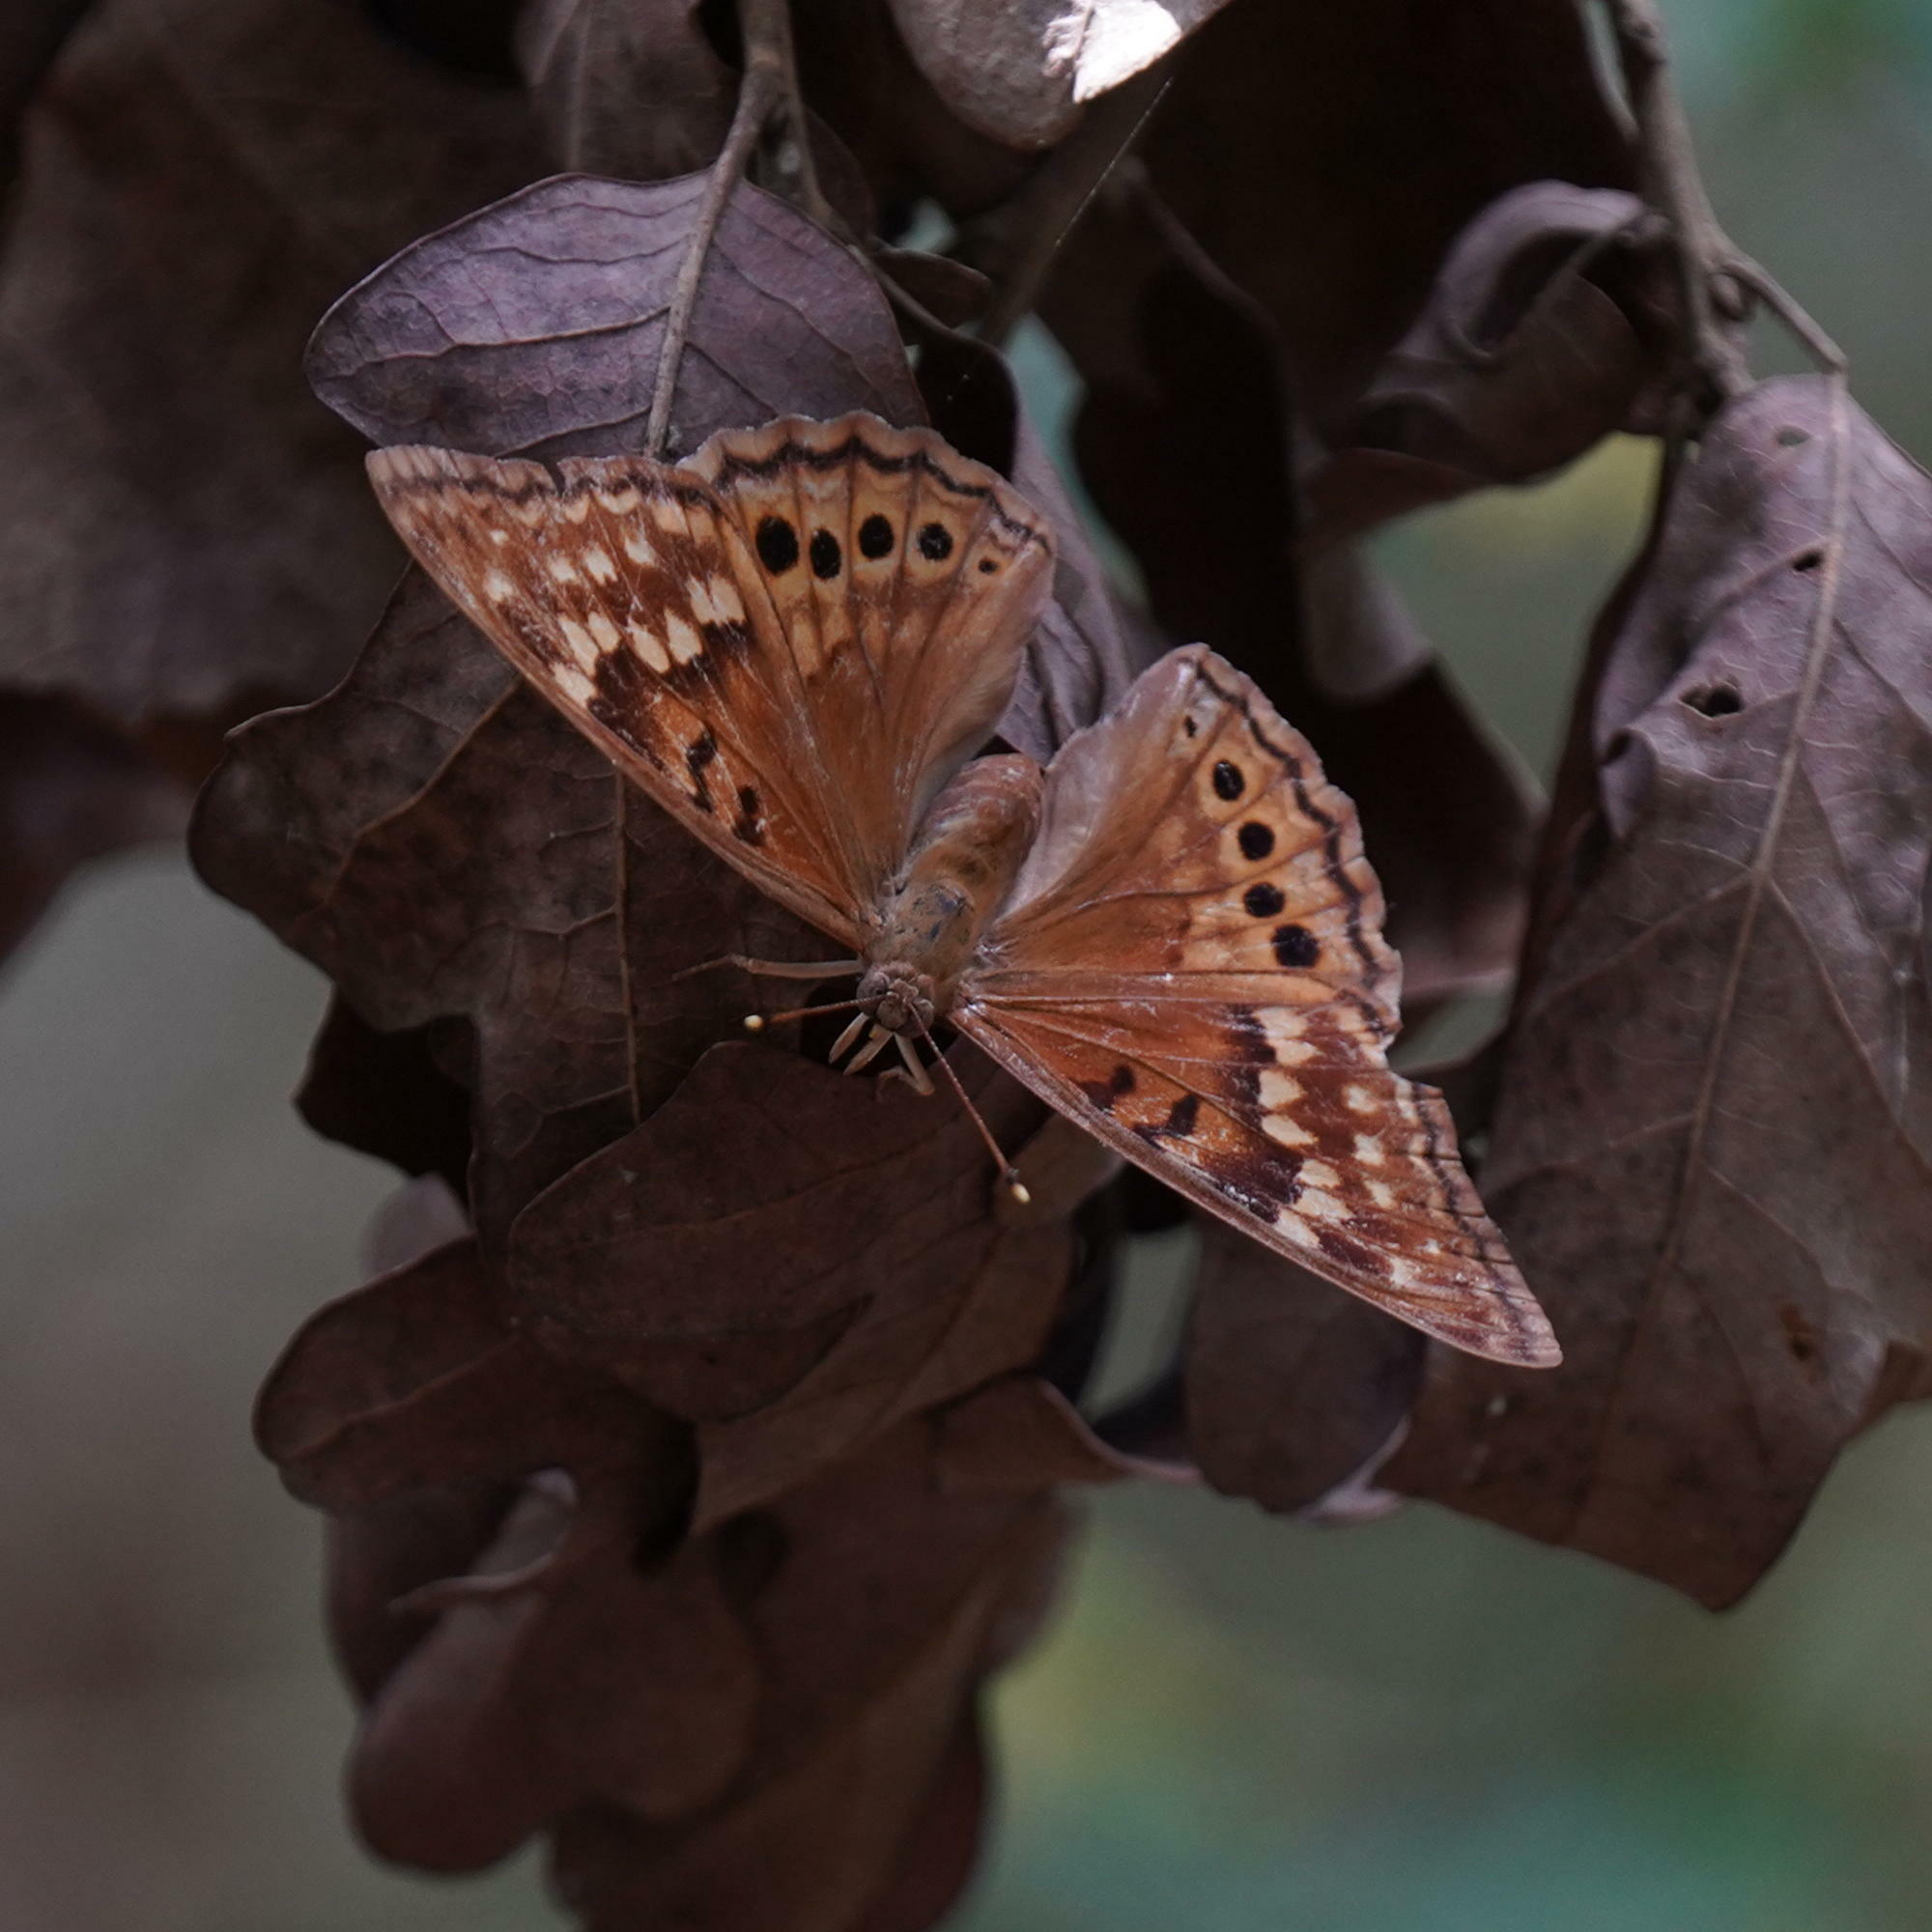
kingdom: Animalia
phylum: Arthropoda
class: Insecta
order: Lepidoptera
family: Nymphalidae
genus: Asterocampa
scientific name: Asterocampa clyton
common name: Tawny emperor
